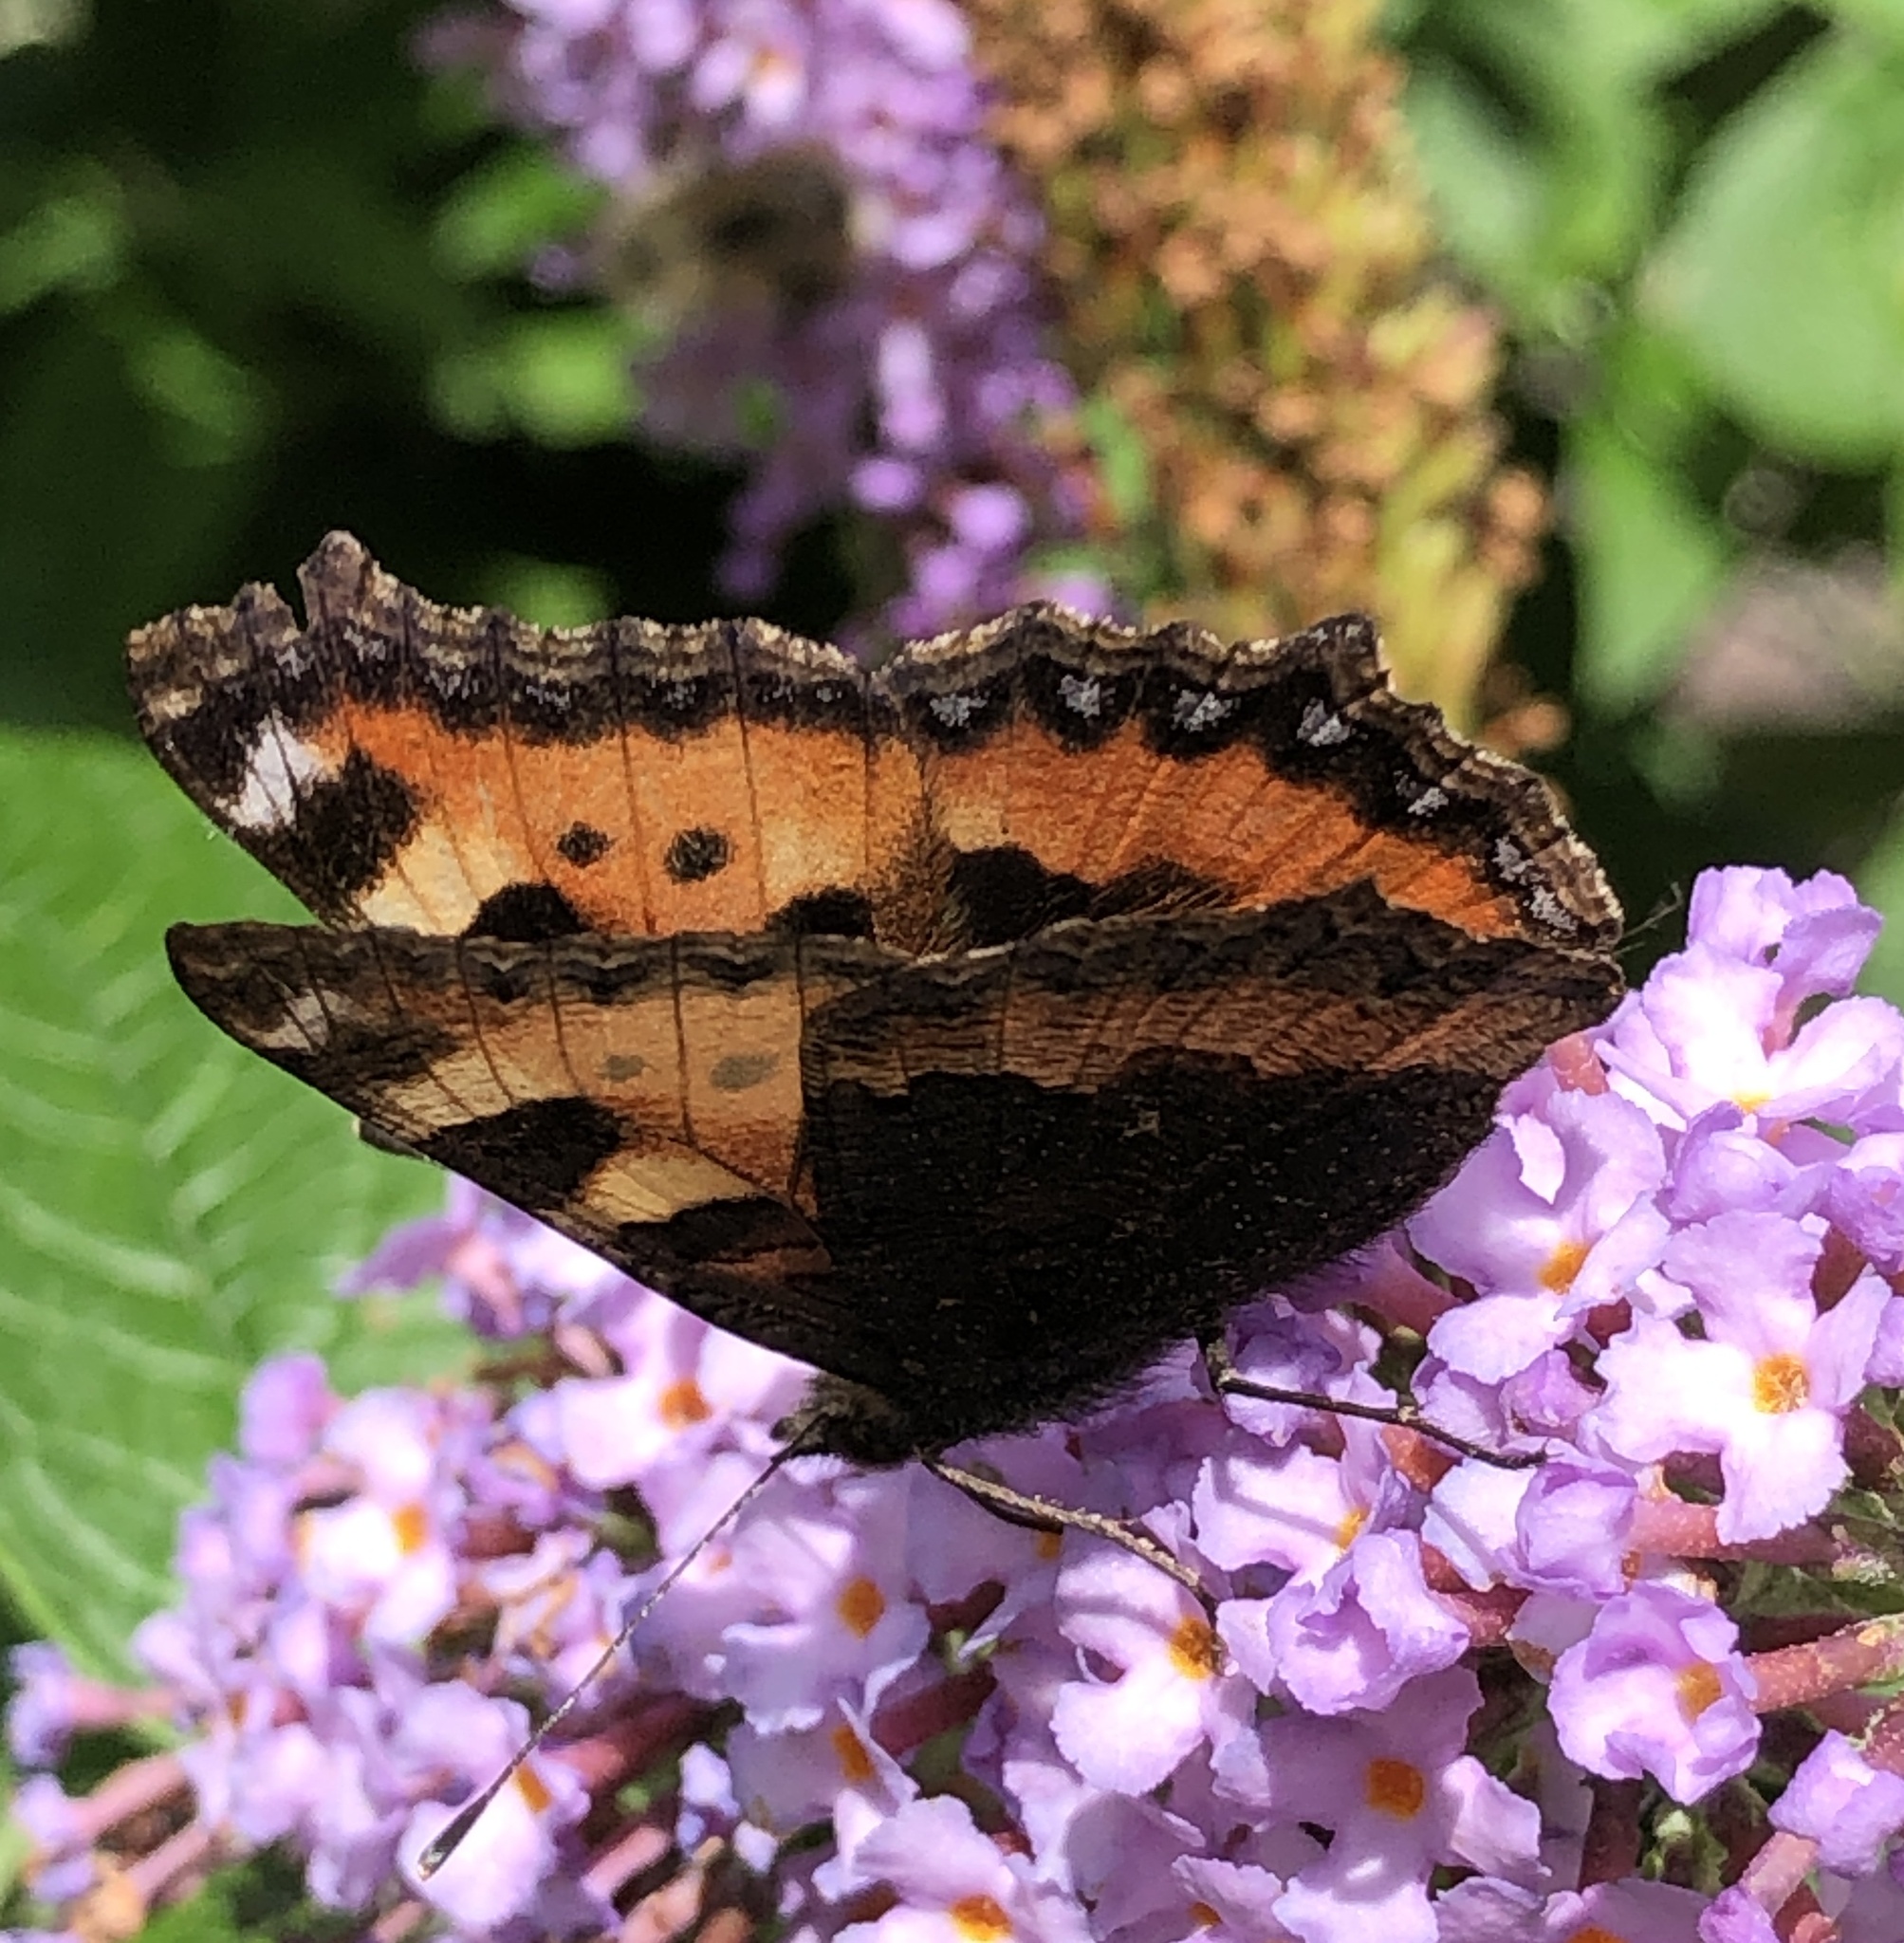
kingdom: Animalia
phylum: Arthropoda
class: Insecta
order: Lepidoptera
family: Nymphalidae
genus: Aglais
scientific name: Aglais urticae
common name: Small tortoiseshell
